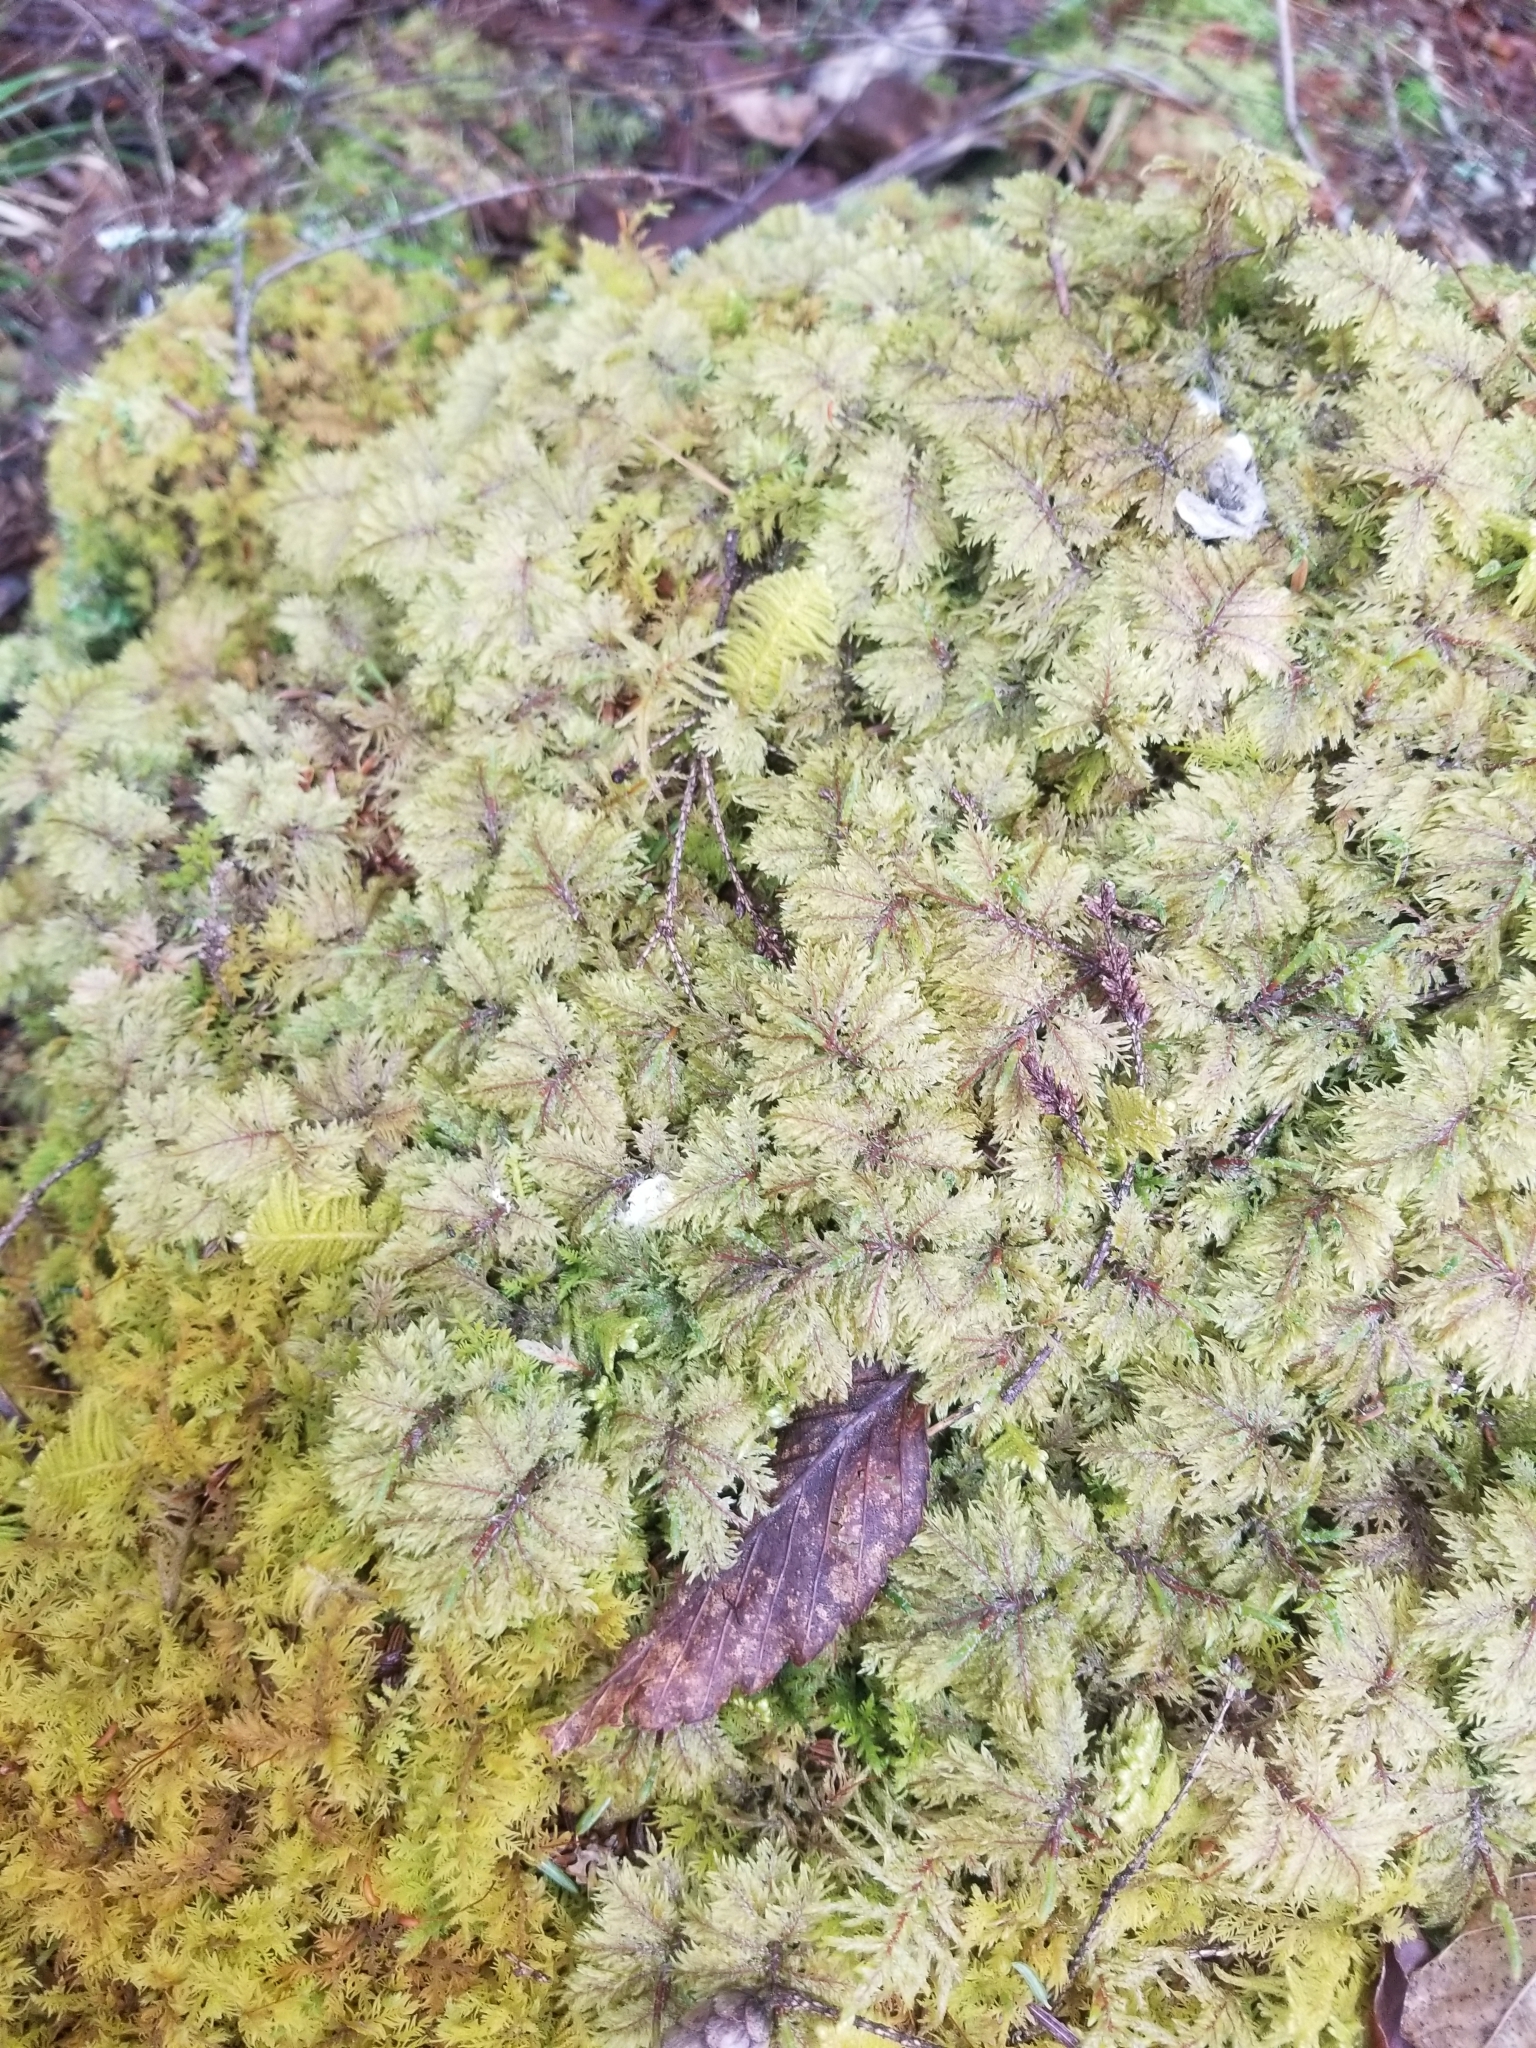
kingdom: Plantae
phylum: Bryophyta
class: Bryopsida
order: Hypnales
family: Hylocomiaceae
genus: Hylocomium
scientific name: Hylocomium splendens
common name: Stairstep moss
